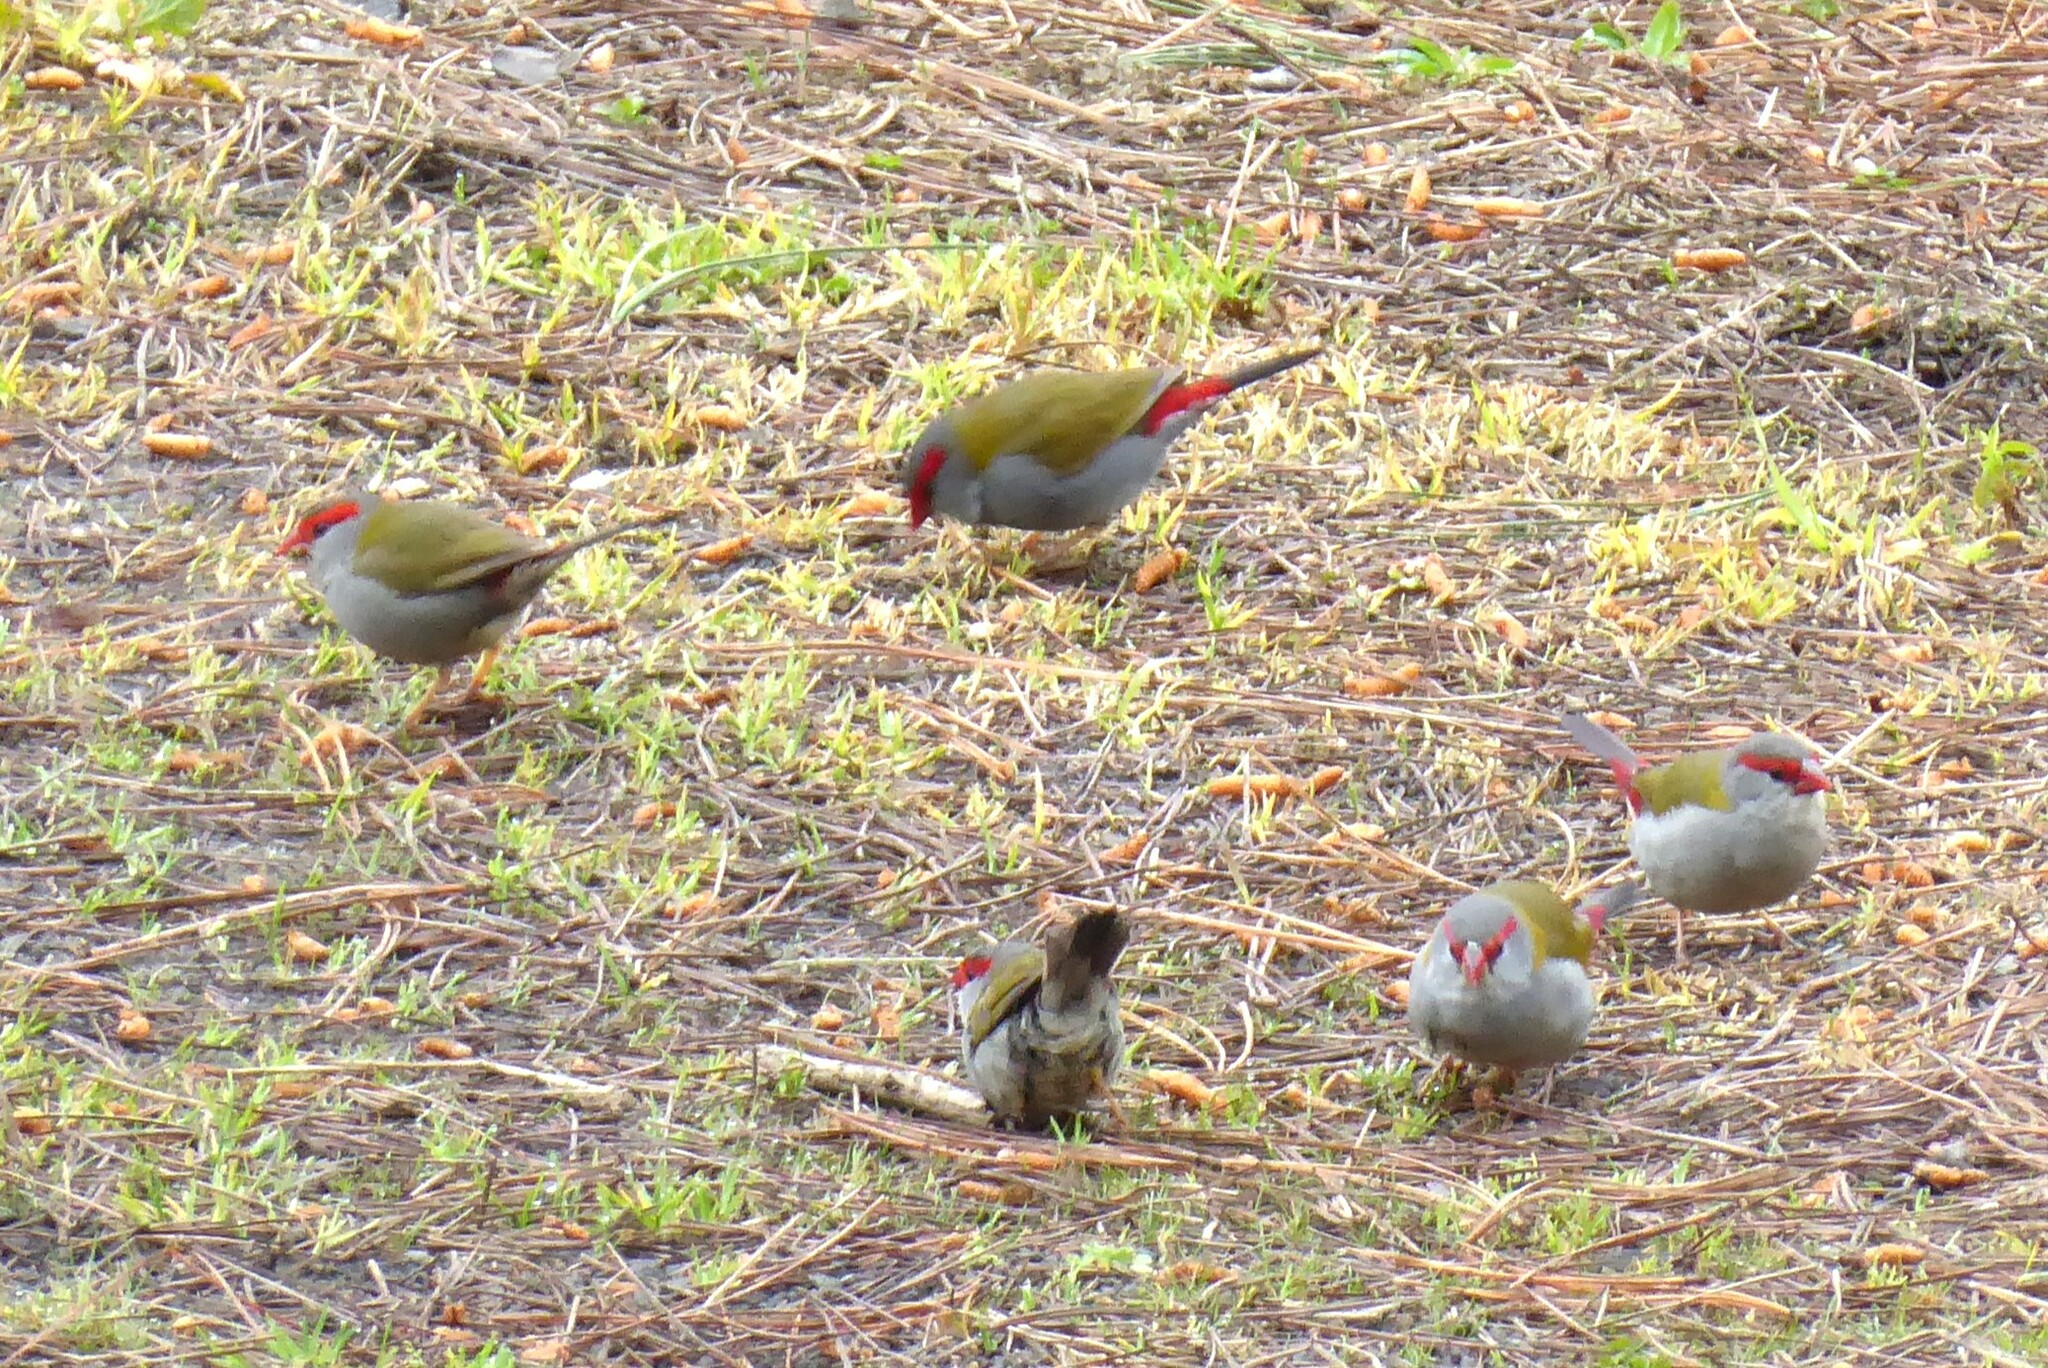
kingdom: Animalia
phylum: Chordata
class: Aves
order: Passeriformes
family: Estrildidae
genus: Neochmia
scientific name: Neochmia temporalis
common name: Red-browed finch
